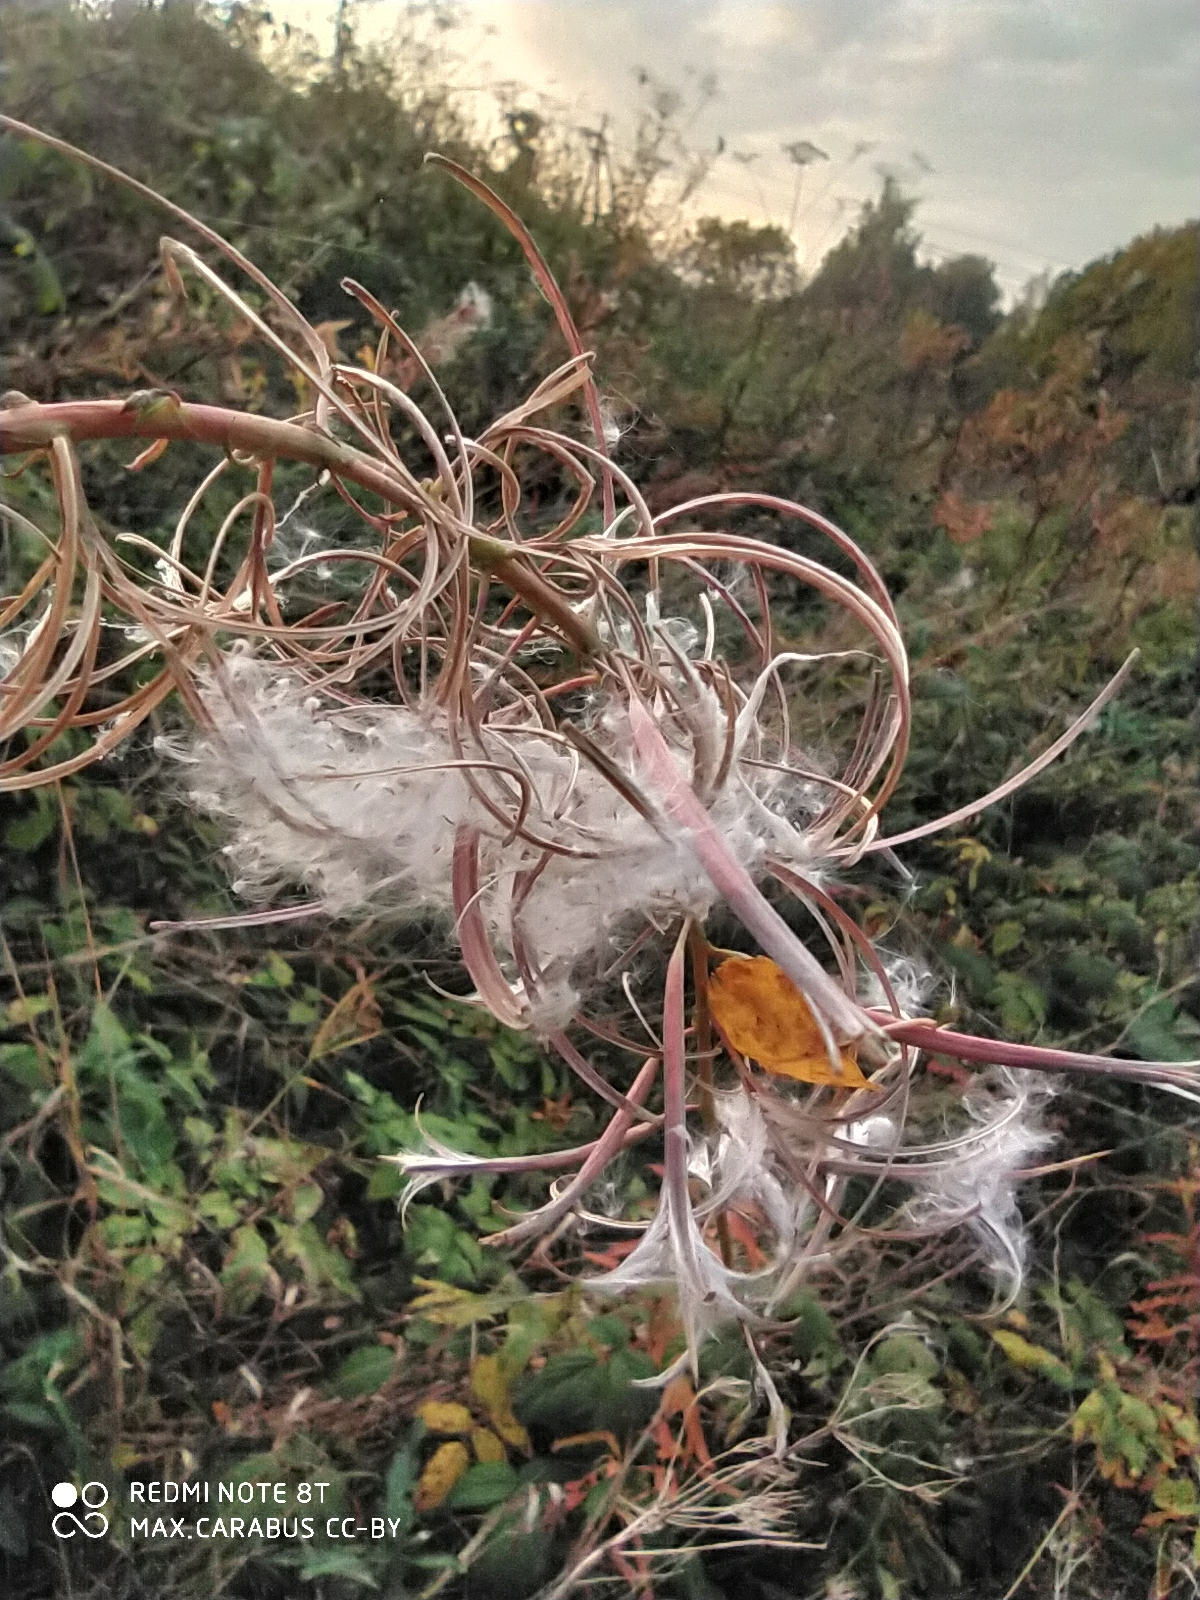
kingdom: Plantae
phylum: Tracheophyta
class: Magnoliopsida
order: Myrtales
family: Onagraceae
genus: Chamaenerion
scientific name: Chamaenerion angustifolium
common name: Fireweed
